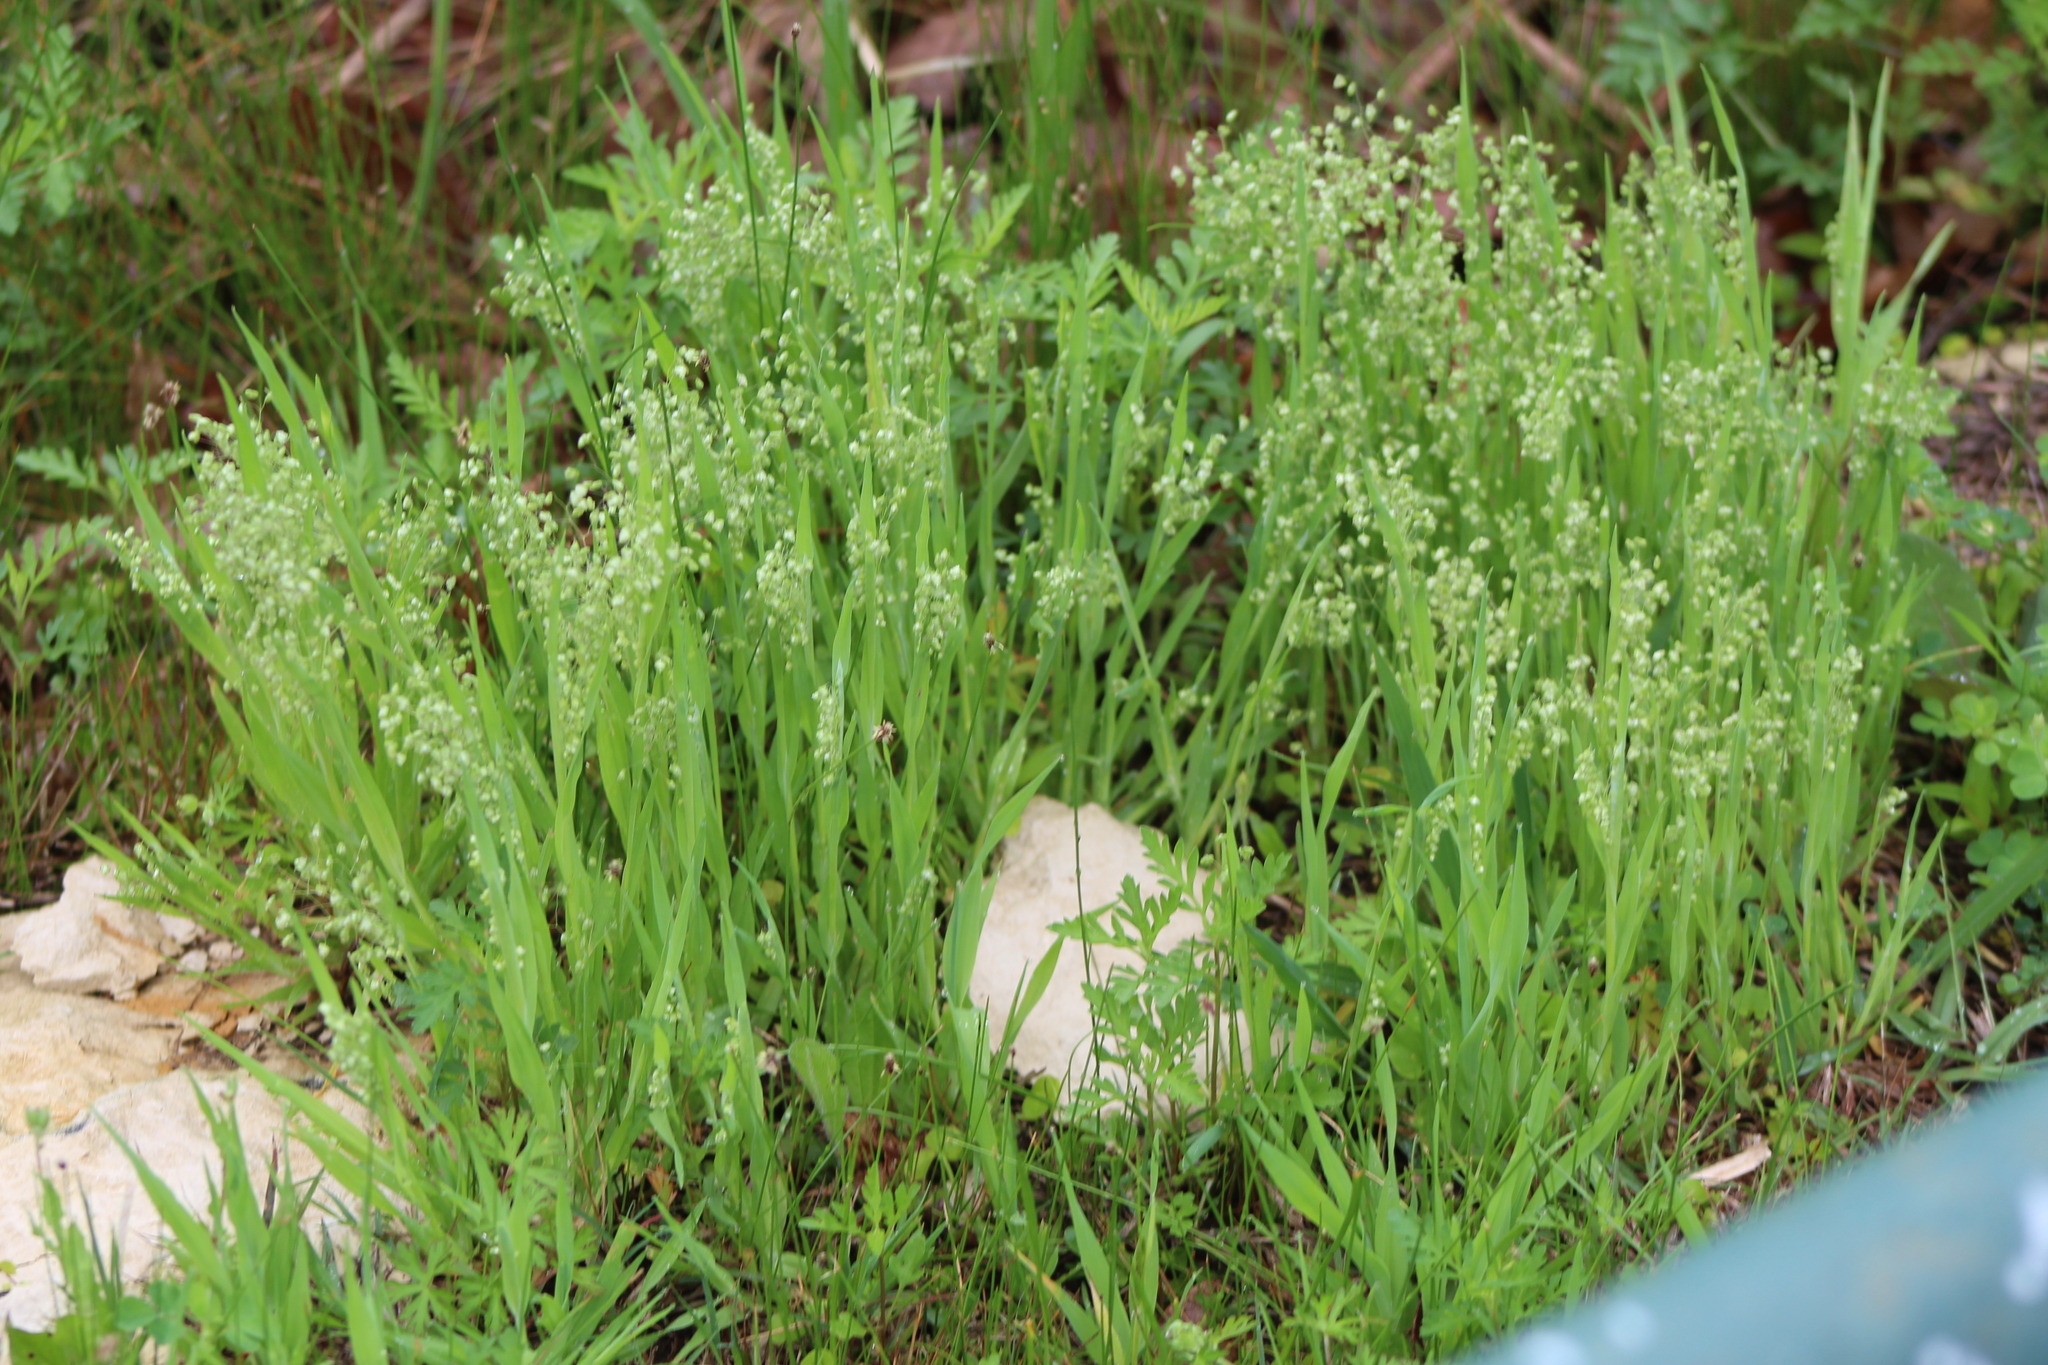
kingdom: Plantae
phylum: Tracheophyta
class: Liliopsida
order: Poales
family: Poaceae
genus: Briza
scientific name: Briza minor
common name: Lesser quaking-grass
